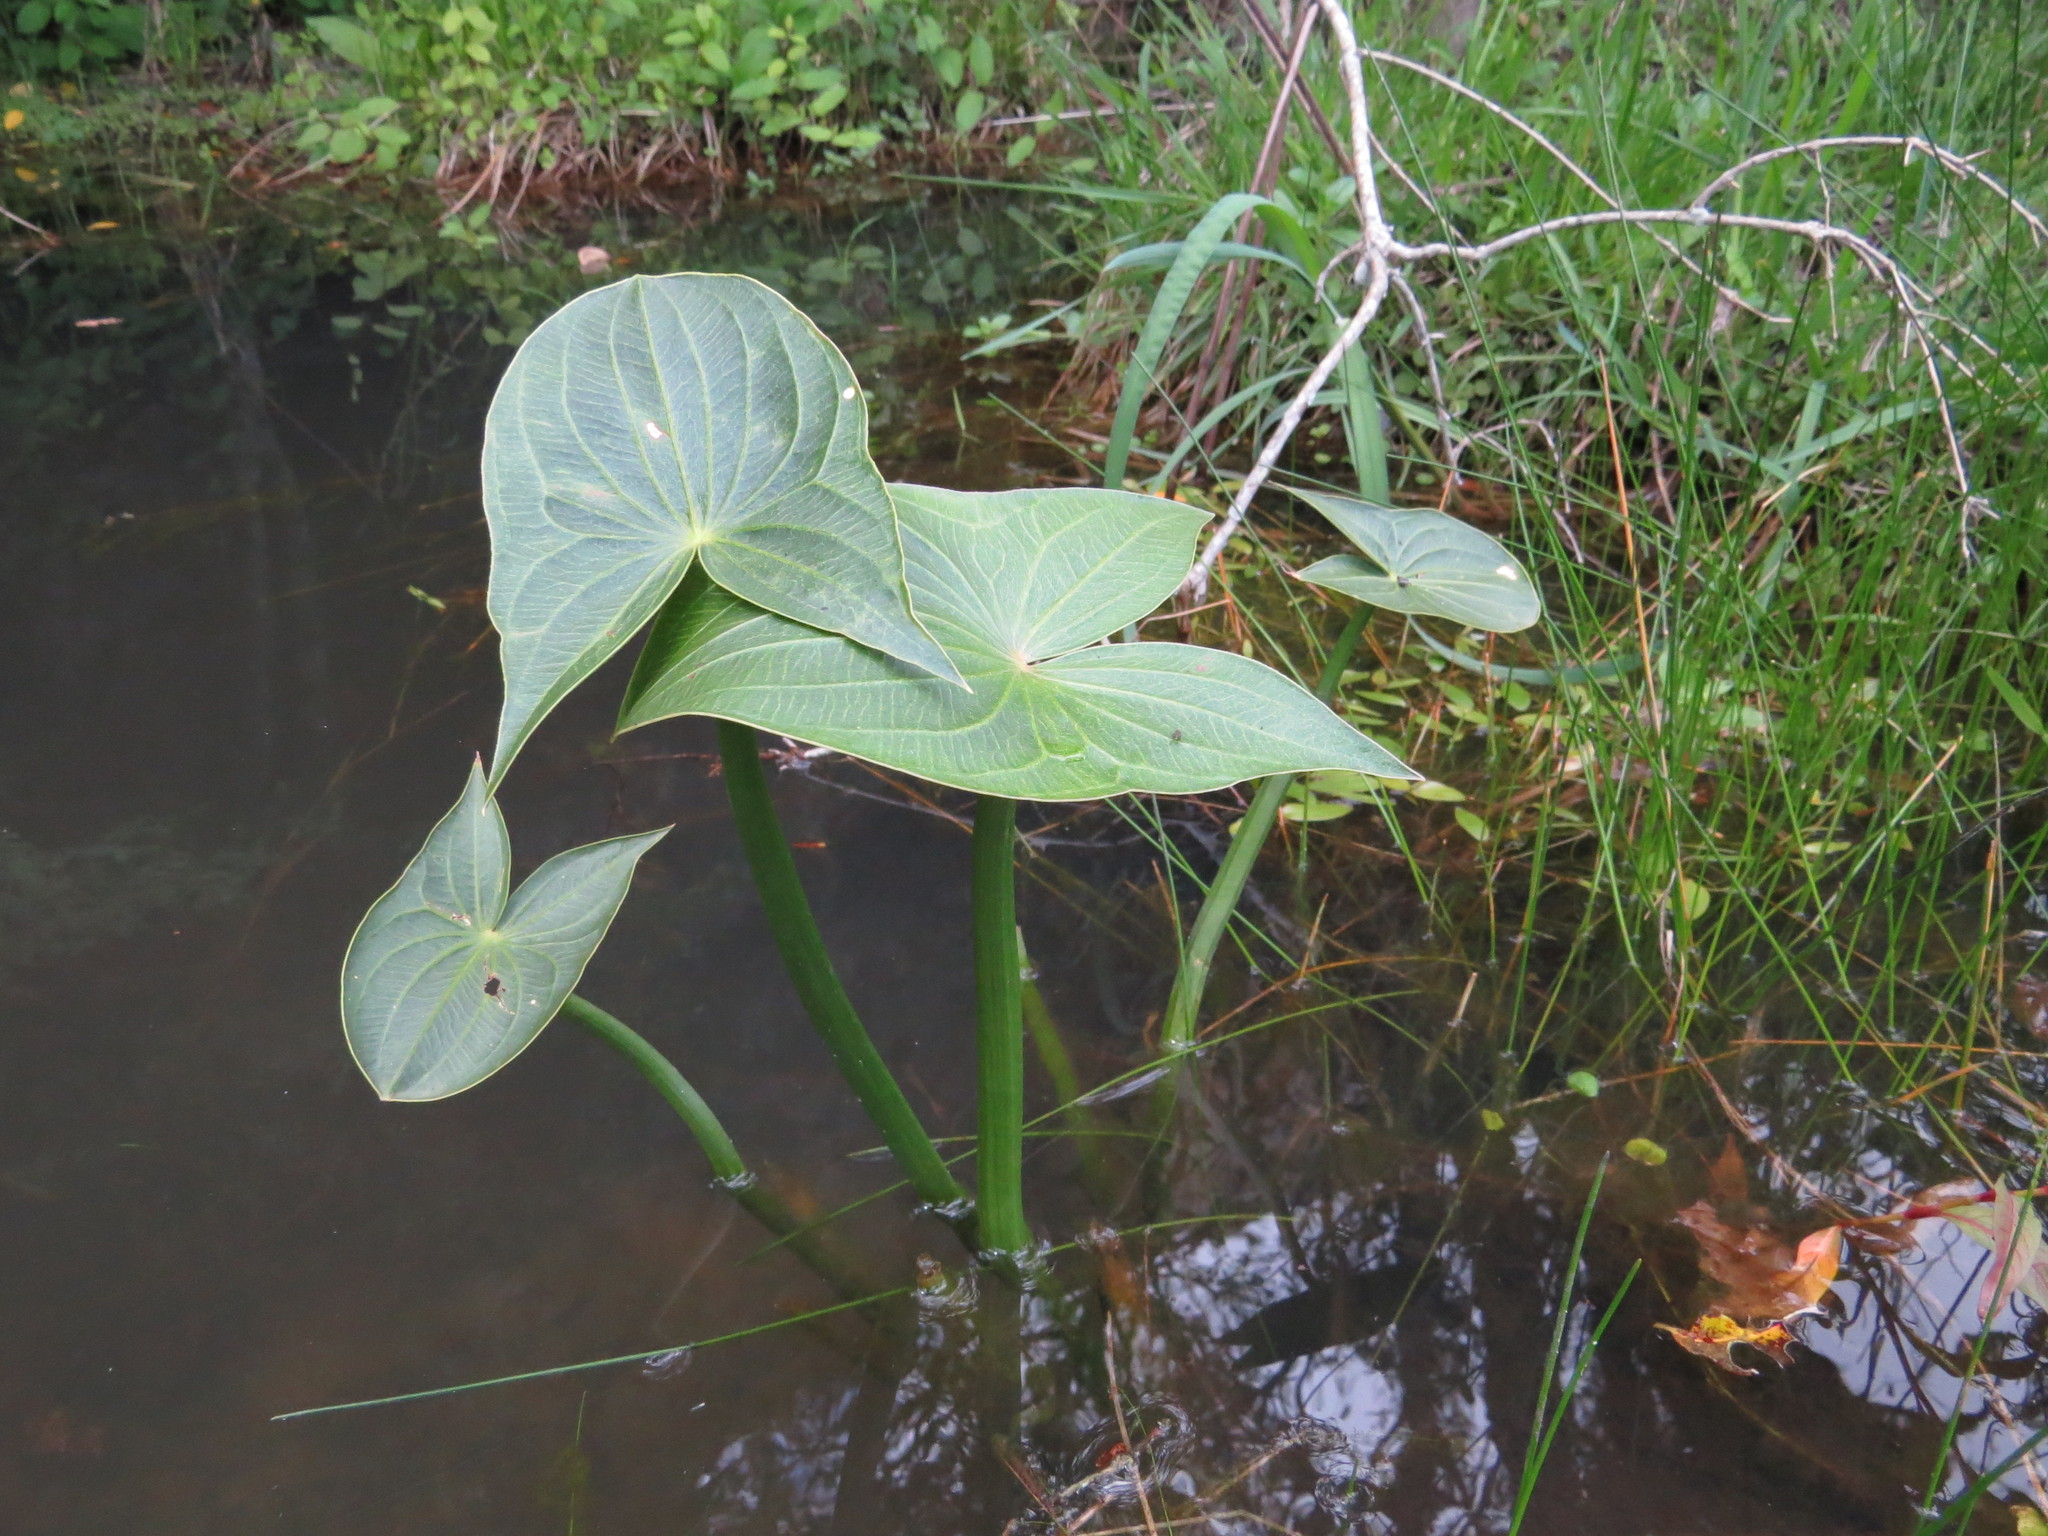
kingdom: Plantae
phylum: Tracheophyta
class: Liliopsida
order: Alismatales
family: Alismataceae
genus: Sagittaria
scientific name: Sagittaria montevidensis
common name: Giant arrowhead
